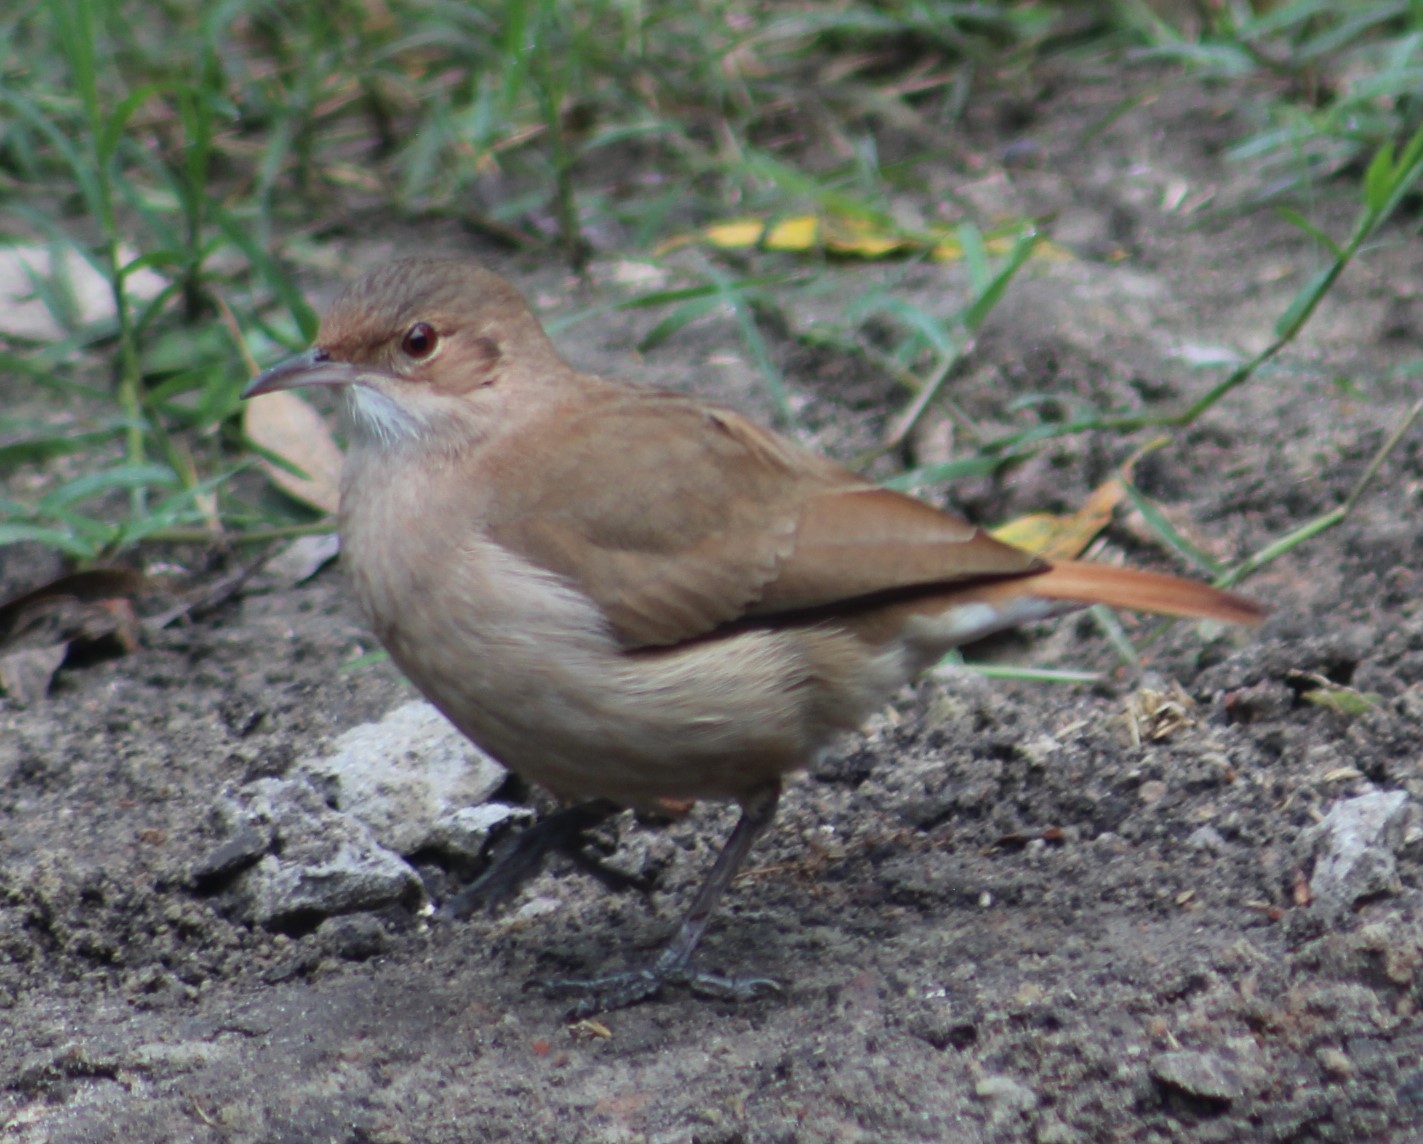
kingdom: Animalia
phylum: Chordata
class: Aves
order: Passeriformes
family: Furnariidae
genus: Furnarius
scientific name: Furnarius rufus
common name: Rufous hornero
